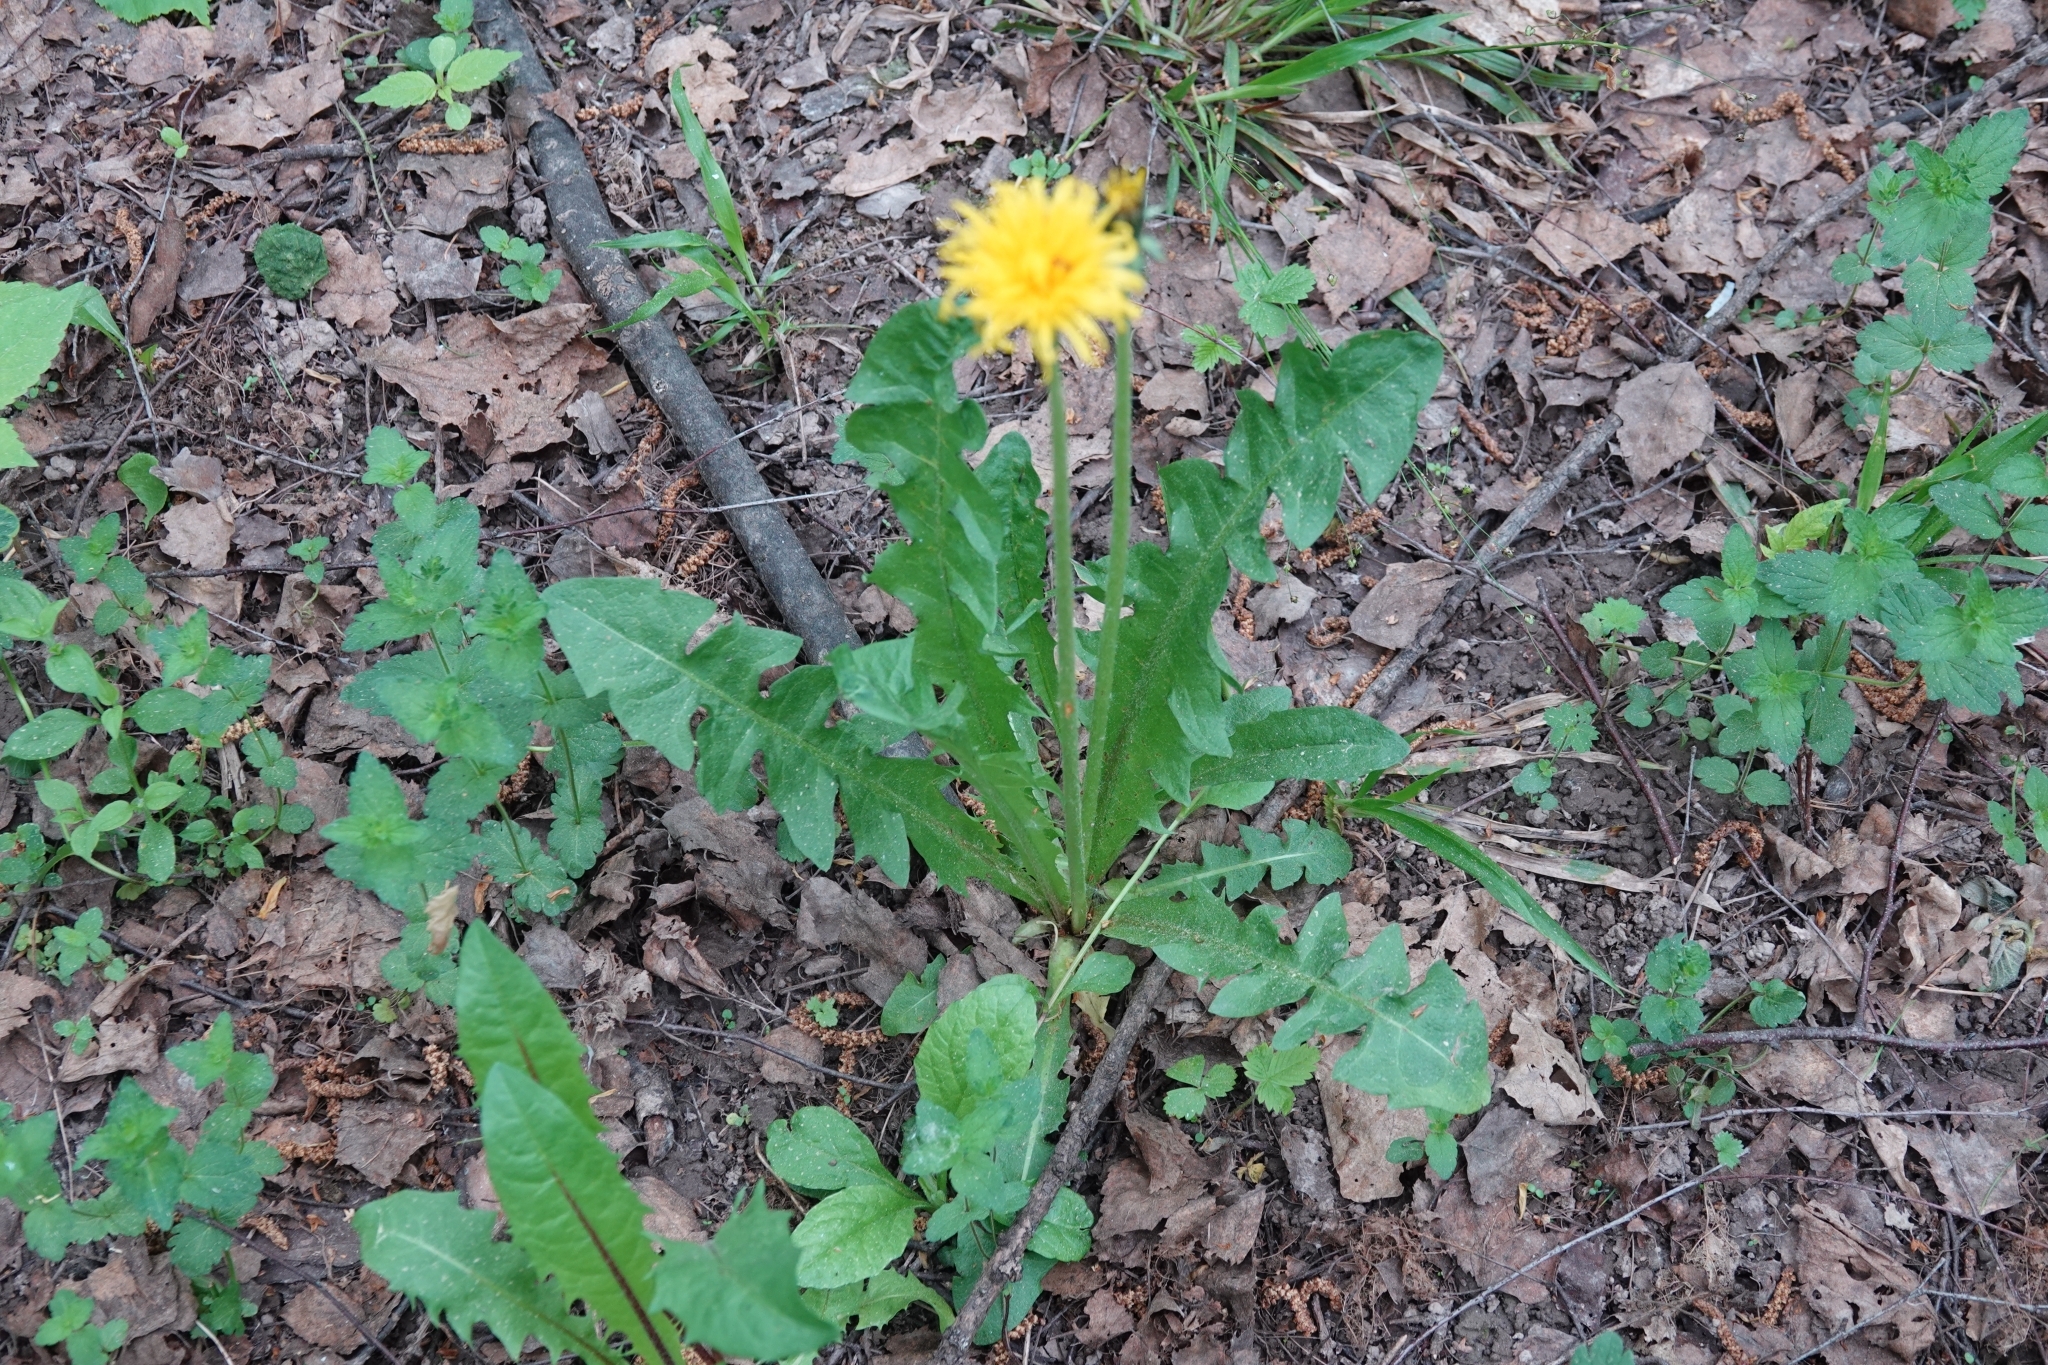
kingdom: Plantae
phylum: Tracheophyta
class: Magnoliopsida
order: Asterales
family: Asteraceae
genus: Taraxacum
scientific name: Taraxacum officinale
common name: Common dandelion
